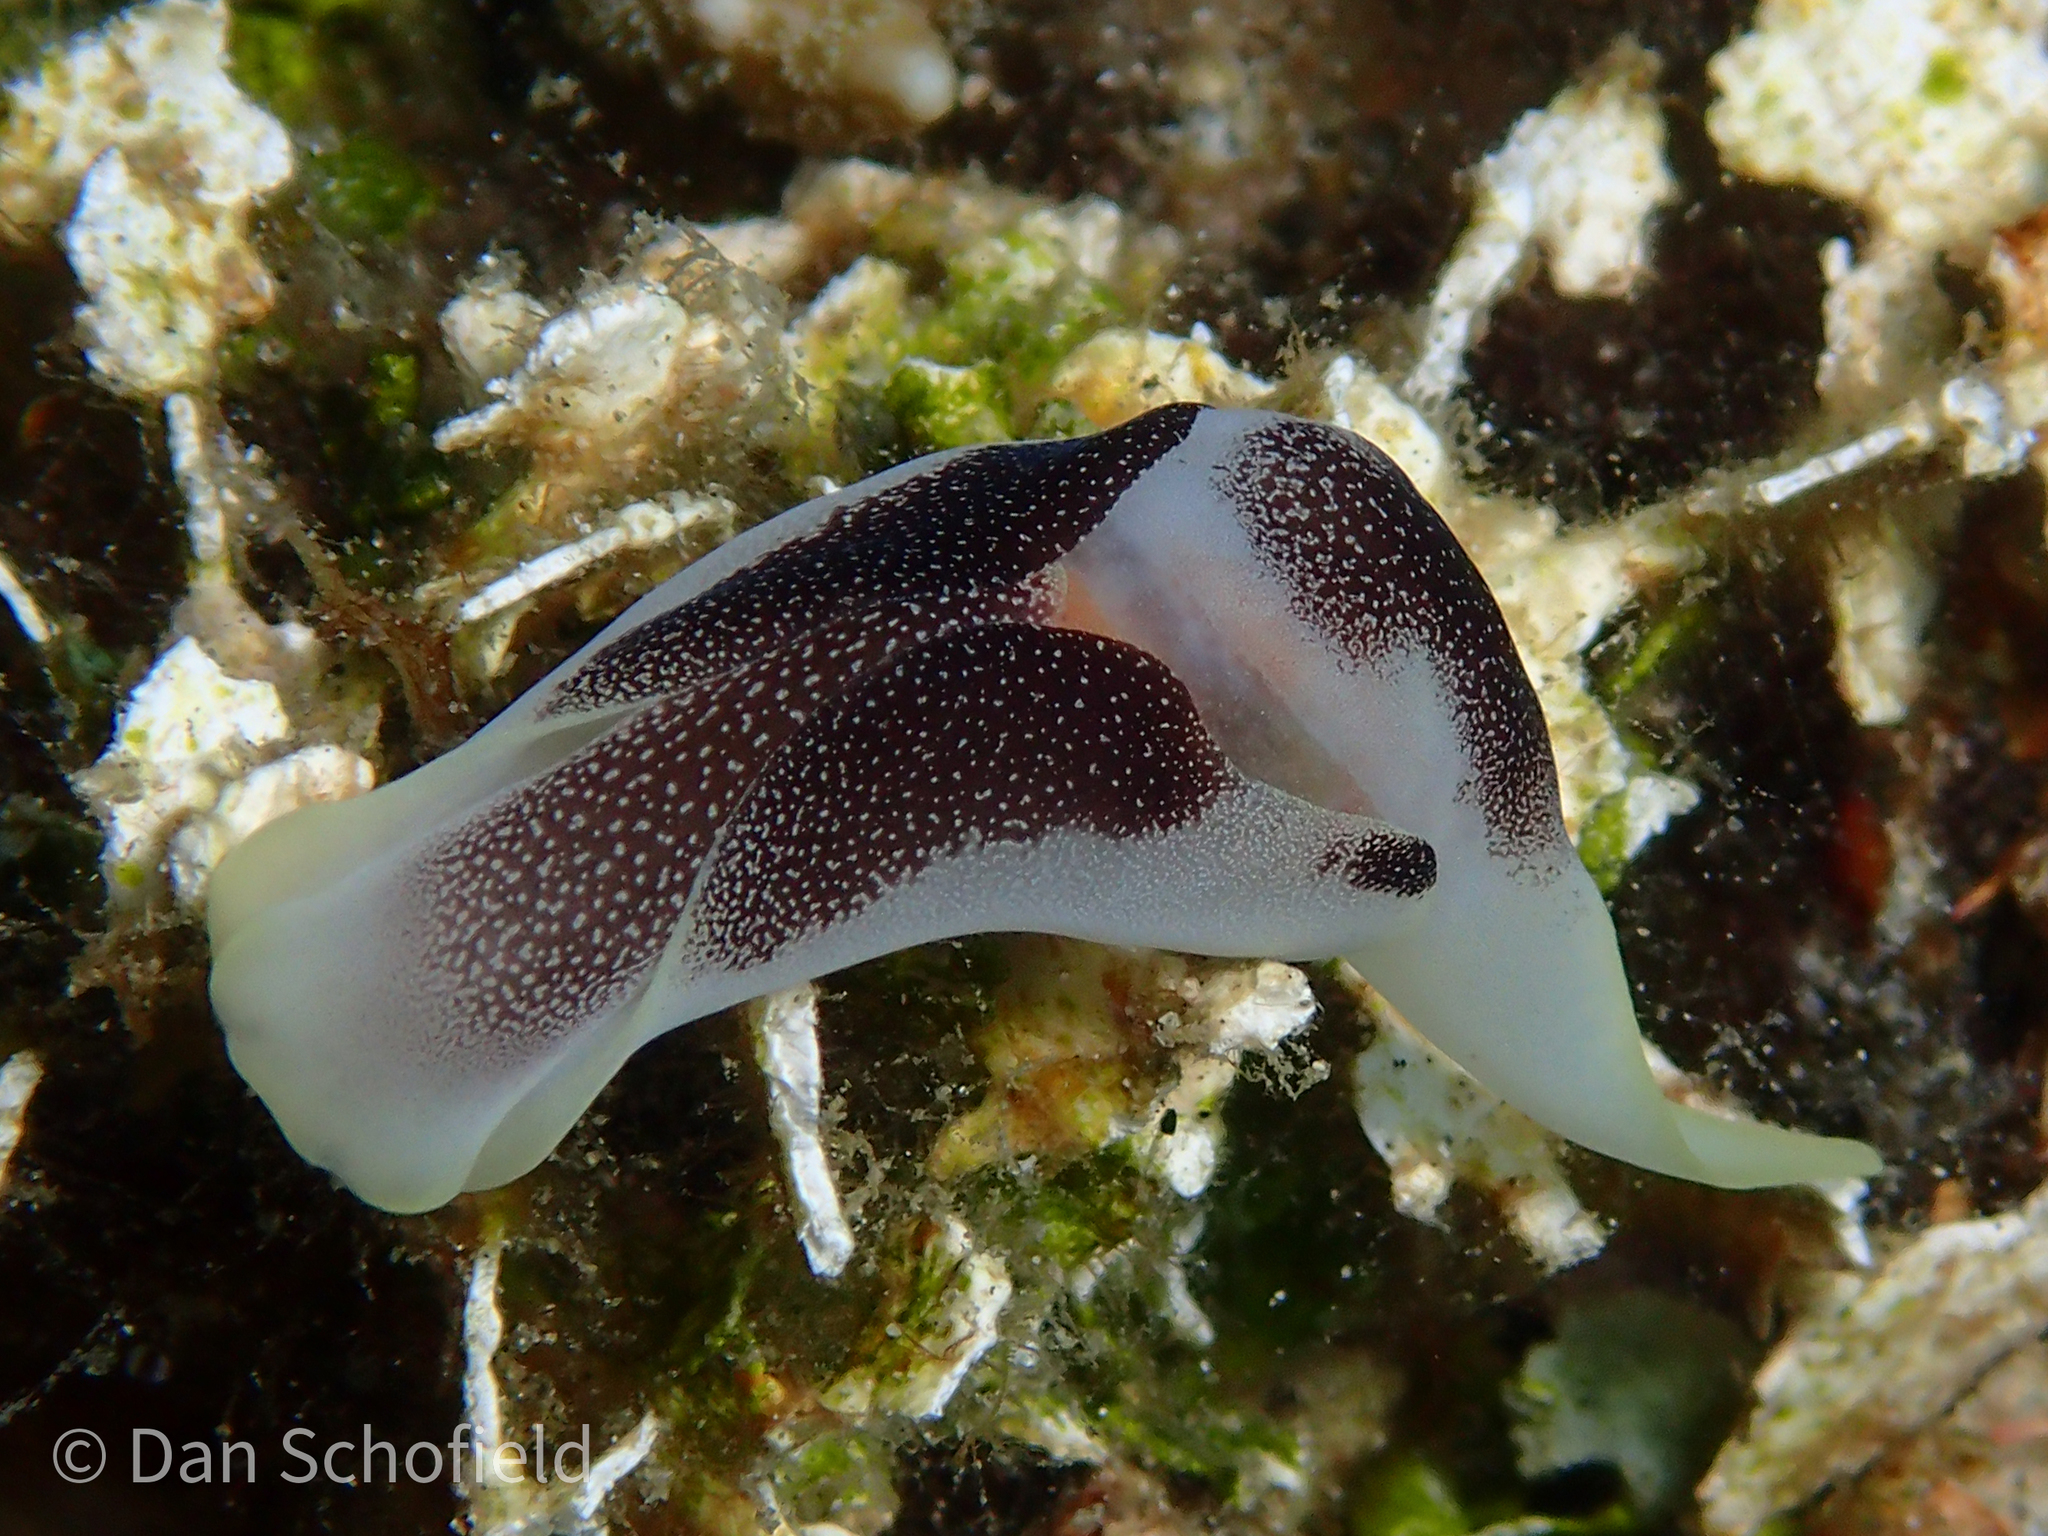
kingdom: Animalia
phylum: Mollusca
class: Gastropoda
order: Cephalaspidea
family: Aglajidae
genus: Chelidonura
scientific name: Chelidonura amoena
